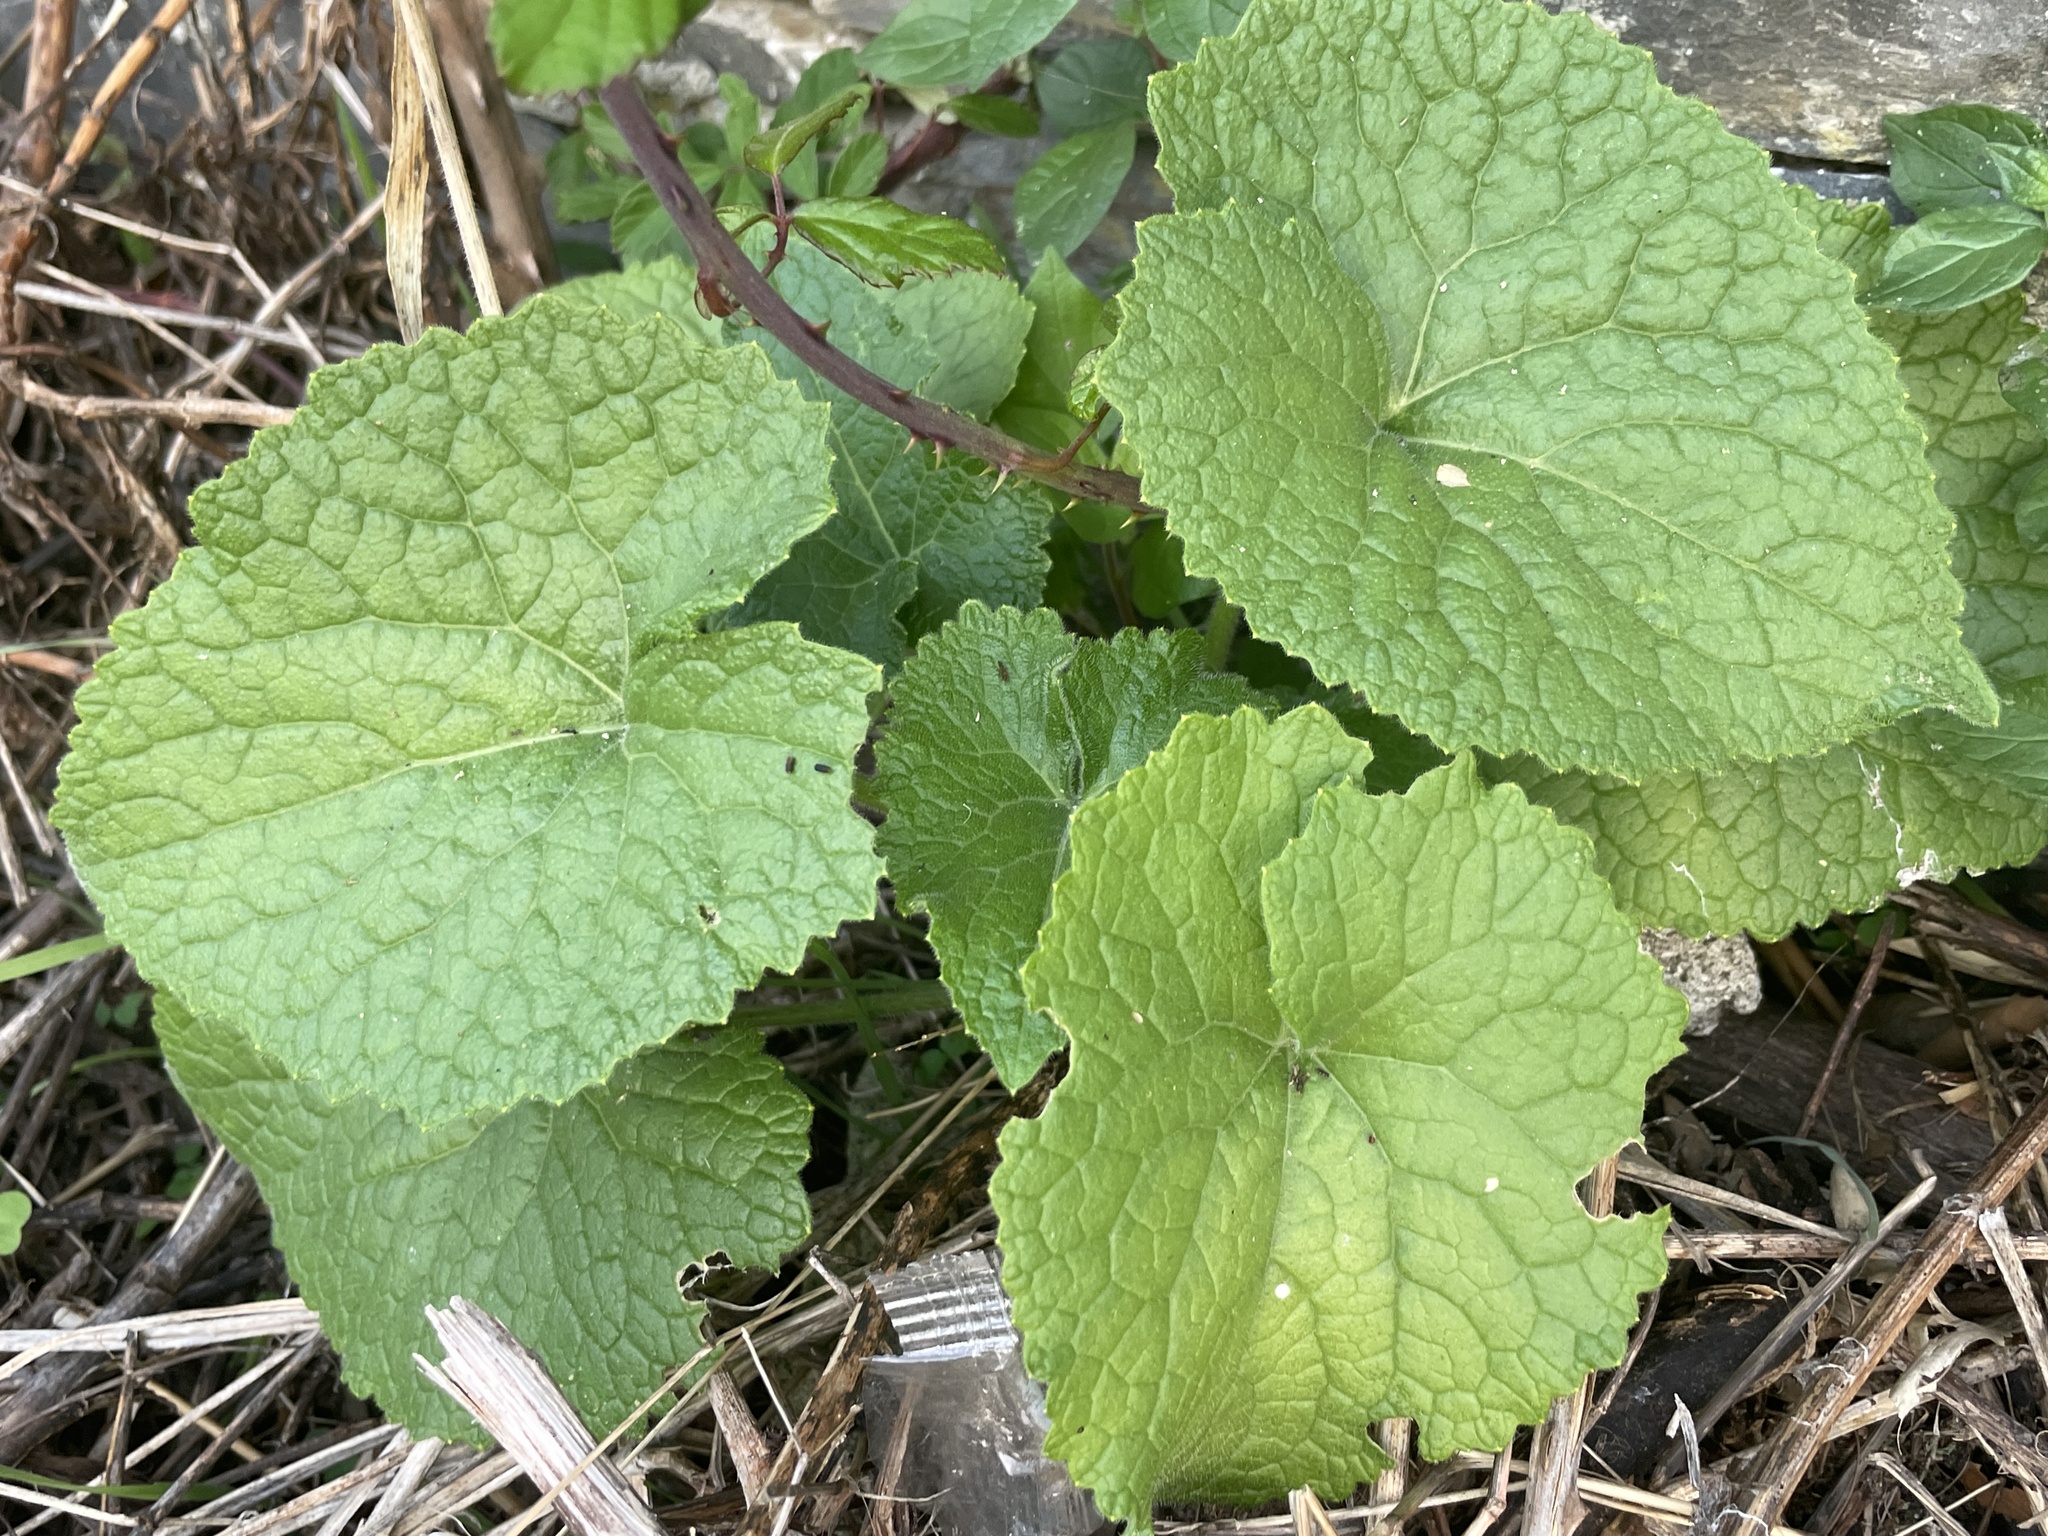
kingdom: Plantae
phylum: Tracheophyta
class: Magnoliopsida
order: Brassicales
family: Brassicaceae
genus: Alliaria
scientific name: Alliaria petiolata
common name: Garlic mustard
